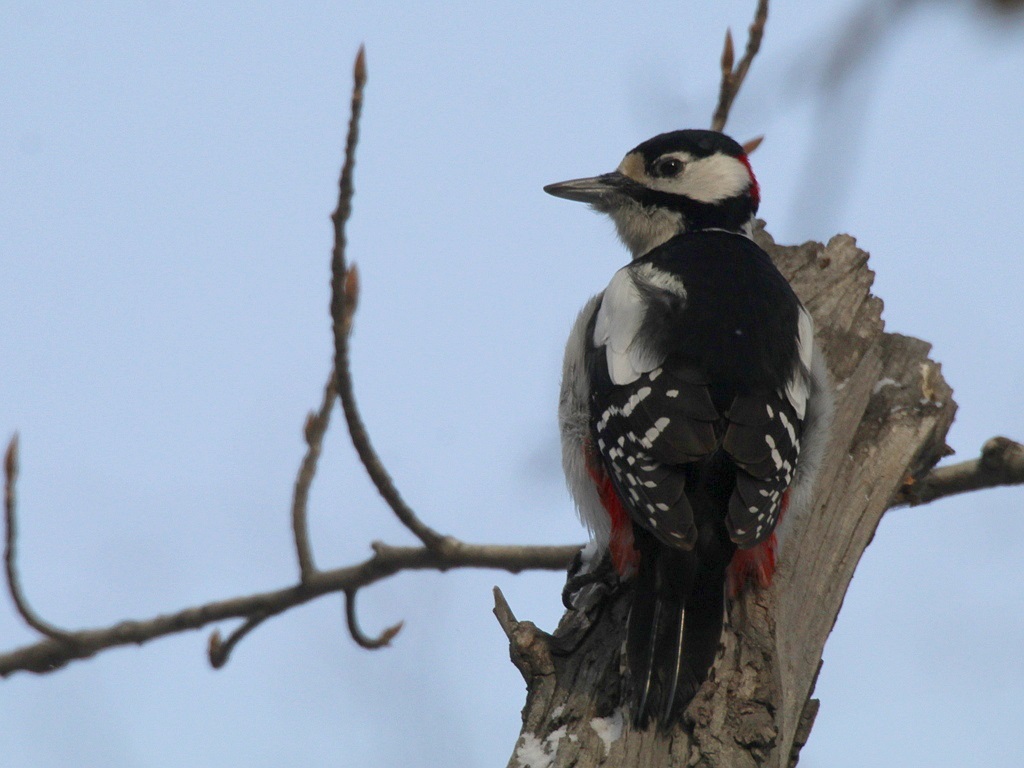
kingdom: Animalia
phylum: Chordata
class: Aves
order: Piciformes
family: Picidae
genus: Dendrocopos
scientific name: Dendrocopos major
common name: Great spotted woodpecker
